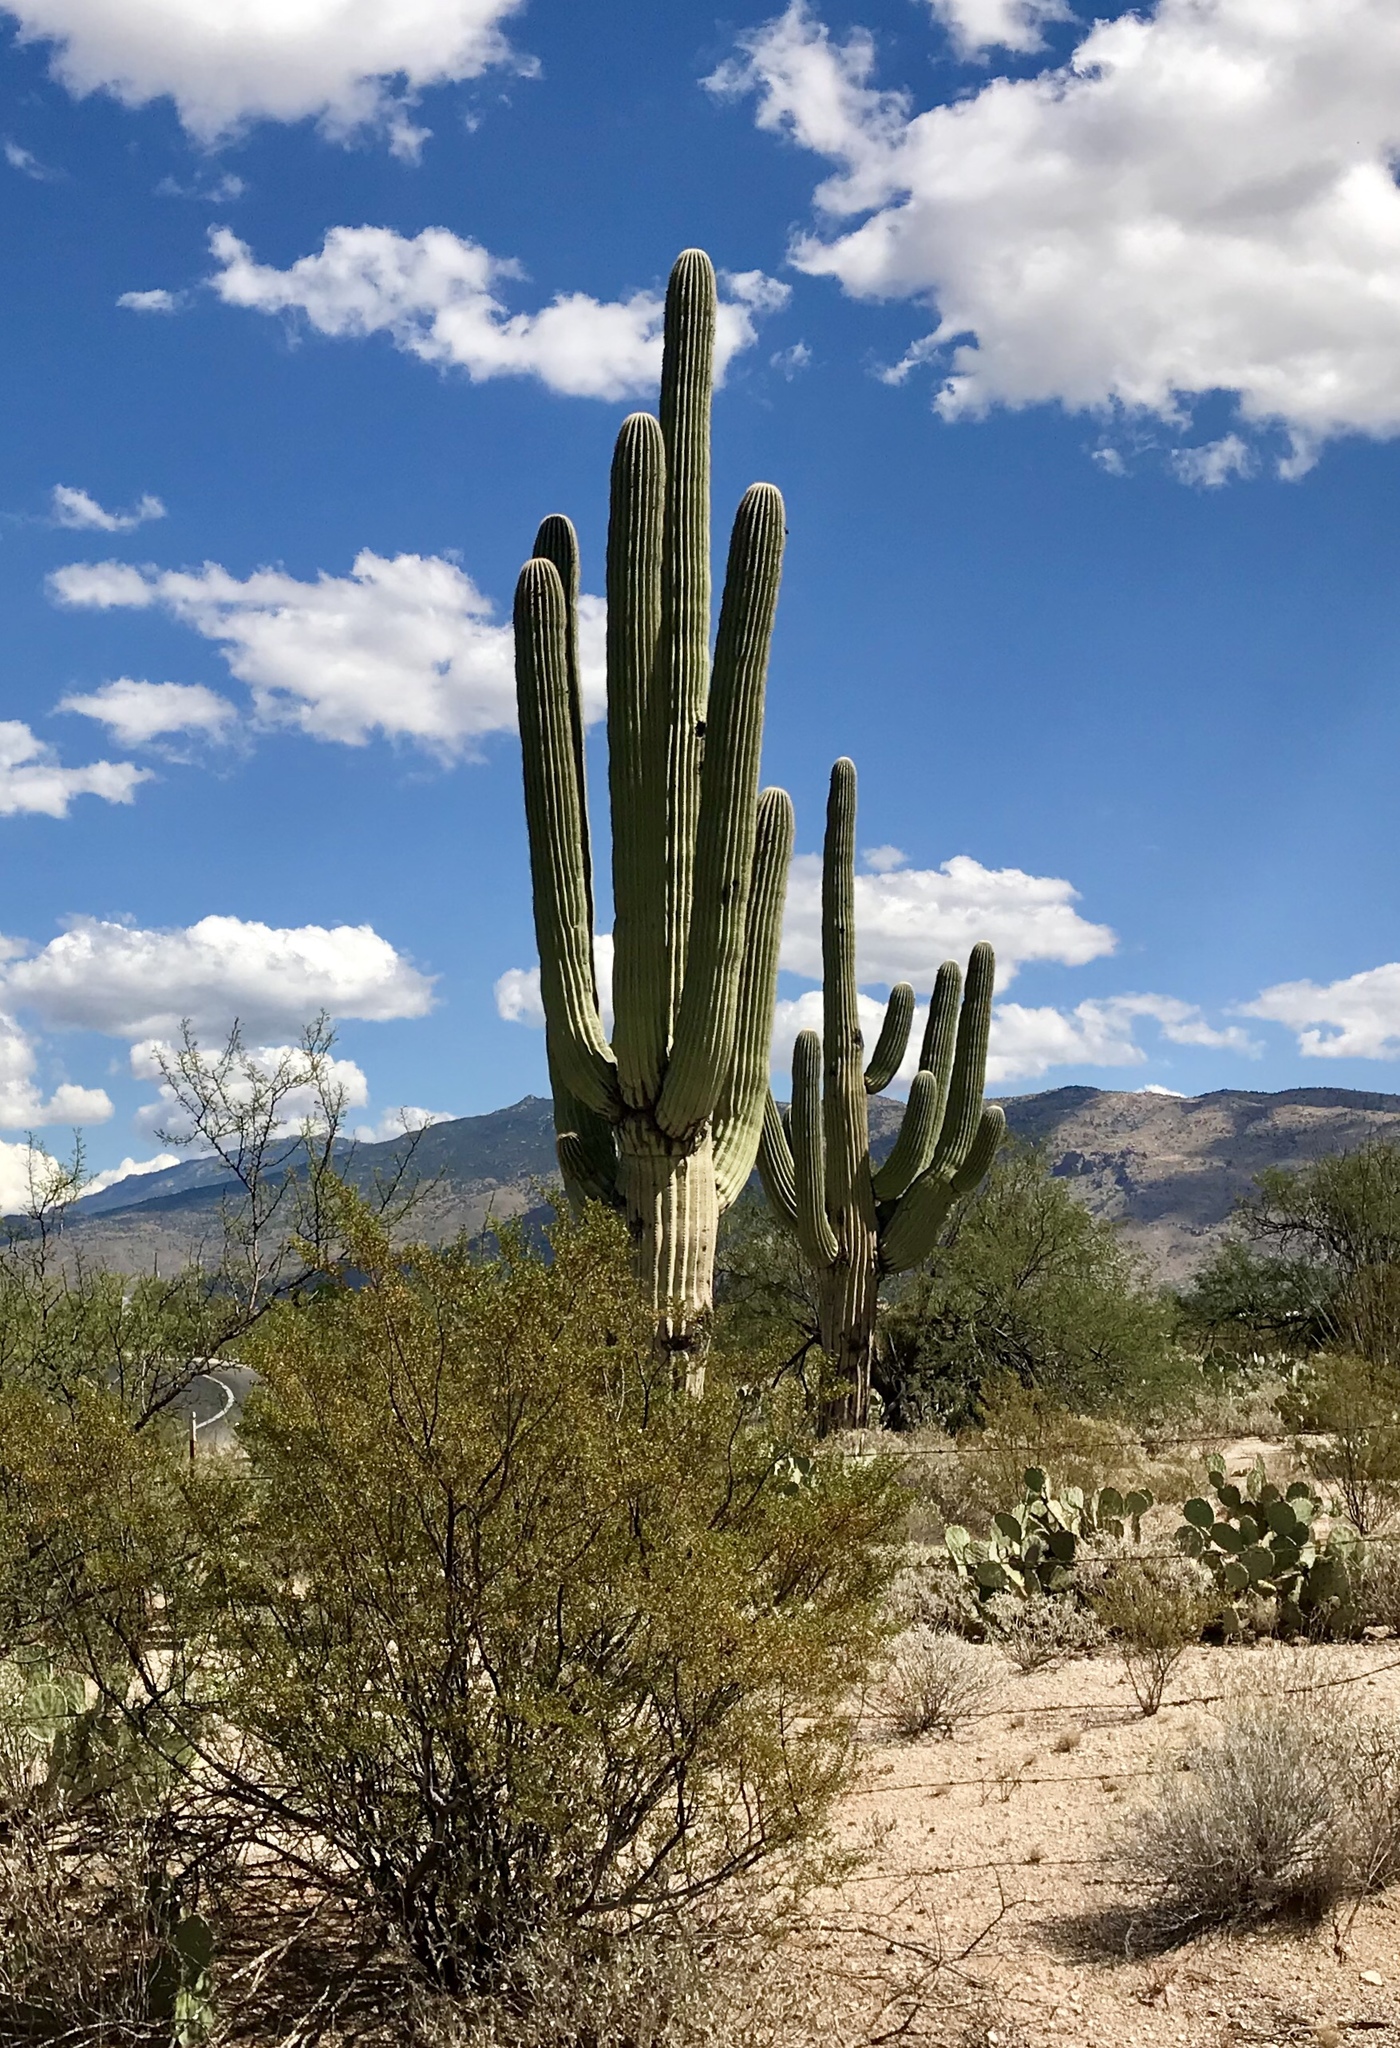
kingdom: Plantae
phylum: Tracheophyta
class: Magnoliopsida
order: Caryophyllales
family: Cactaceae
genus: Carnegiea
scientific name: Carnegiea gigantea
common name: Saguaro
